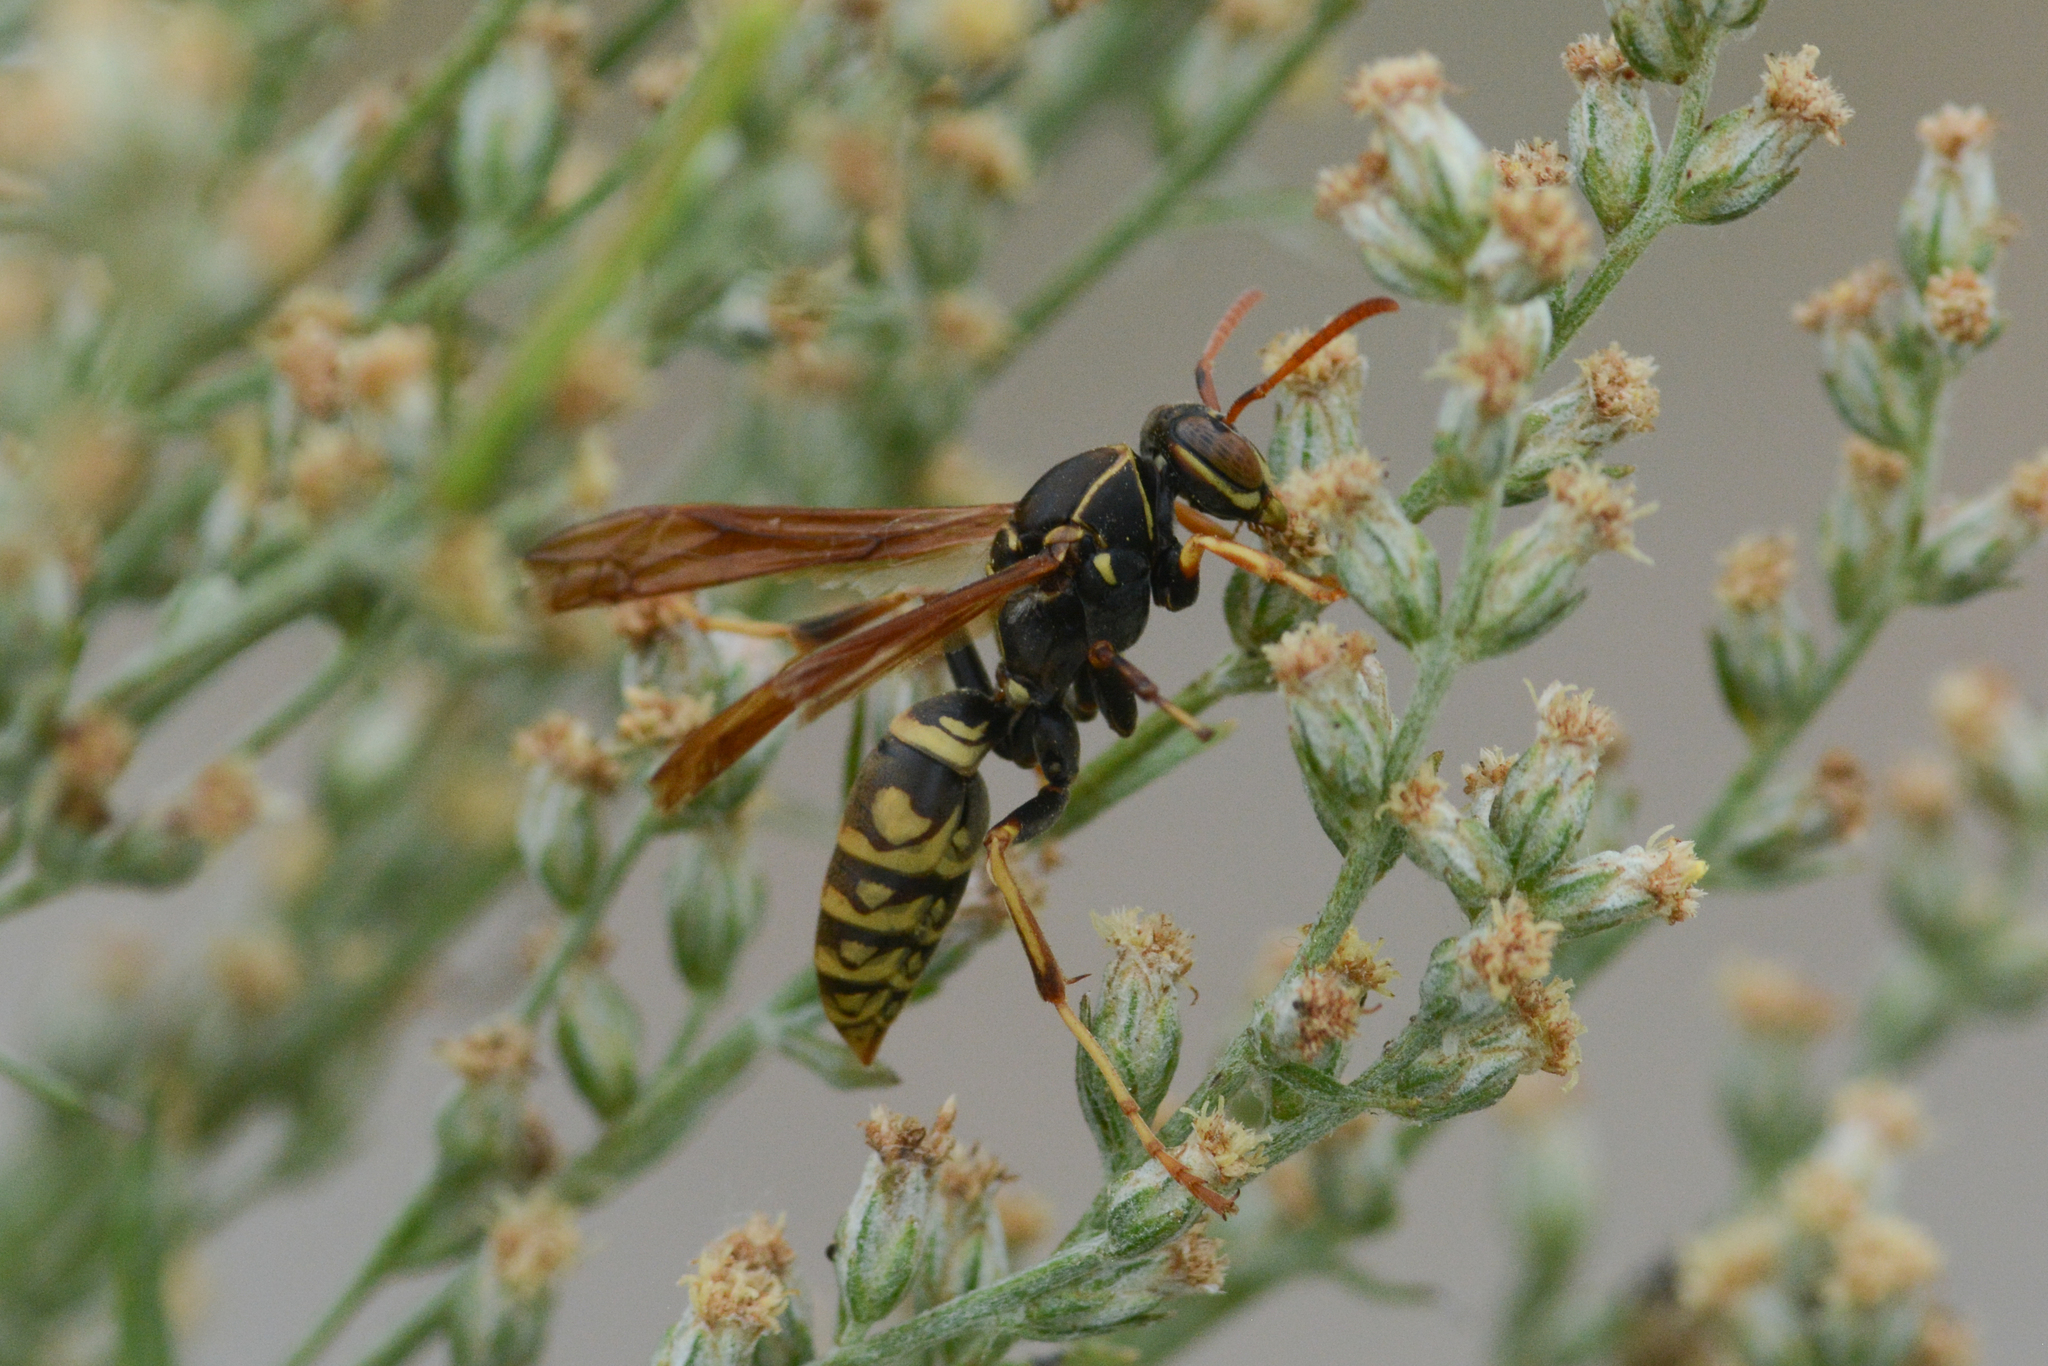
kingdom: Animalia
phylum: Arthropoda
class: Insecta
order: Hymenoptera
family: Eumenidae
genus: Polistes
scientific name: Polistes aurifer
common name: Paper wasp
